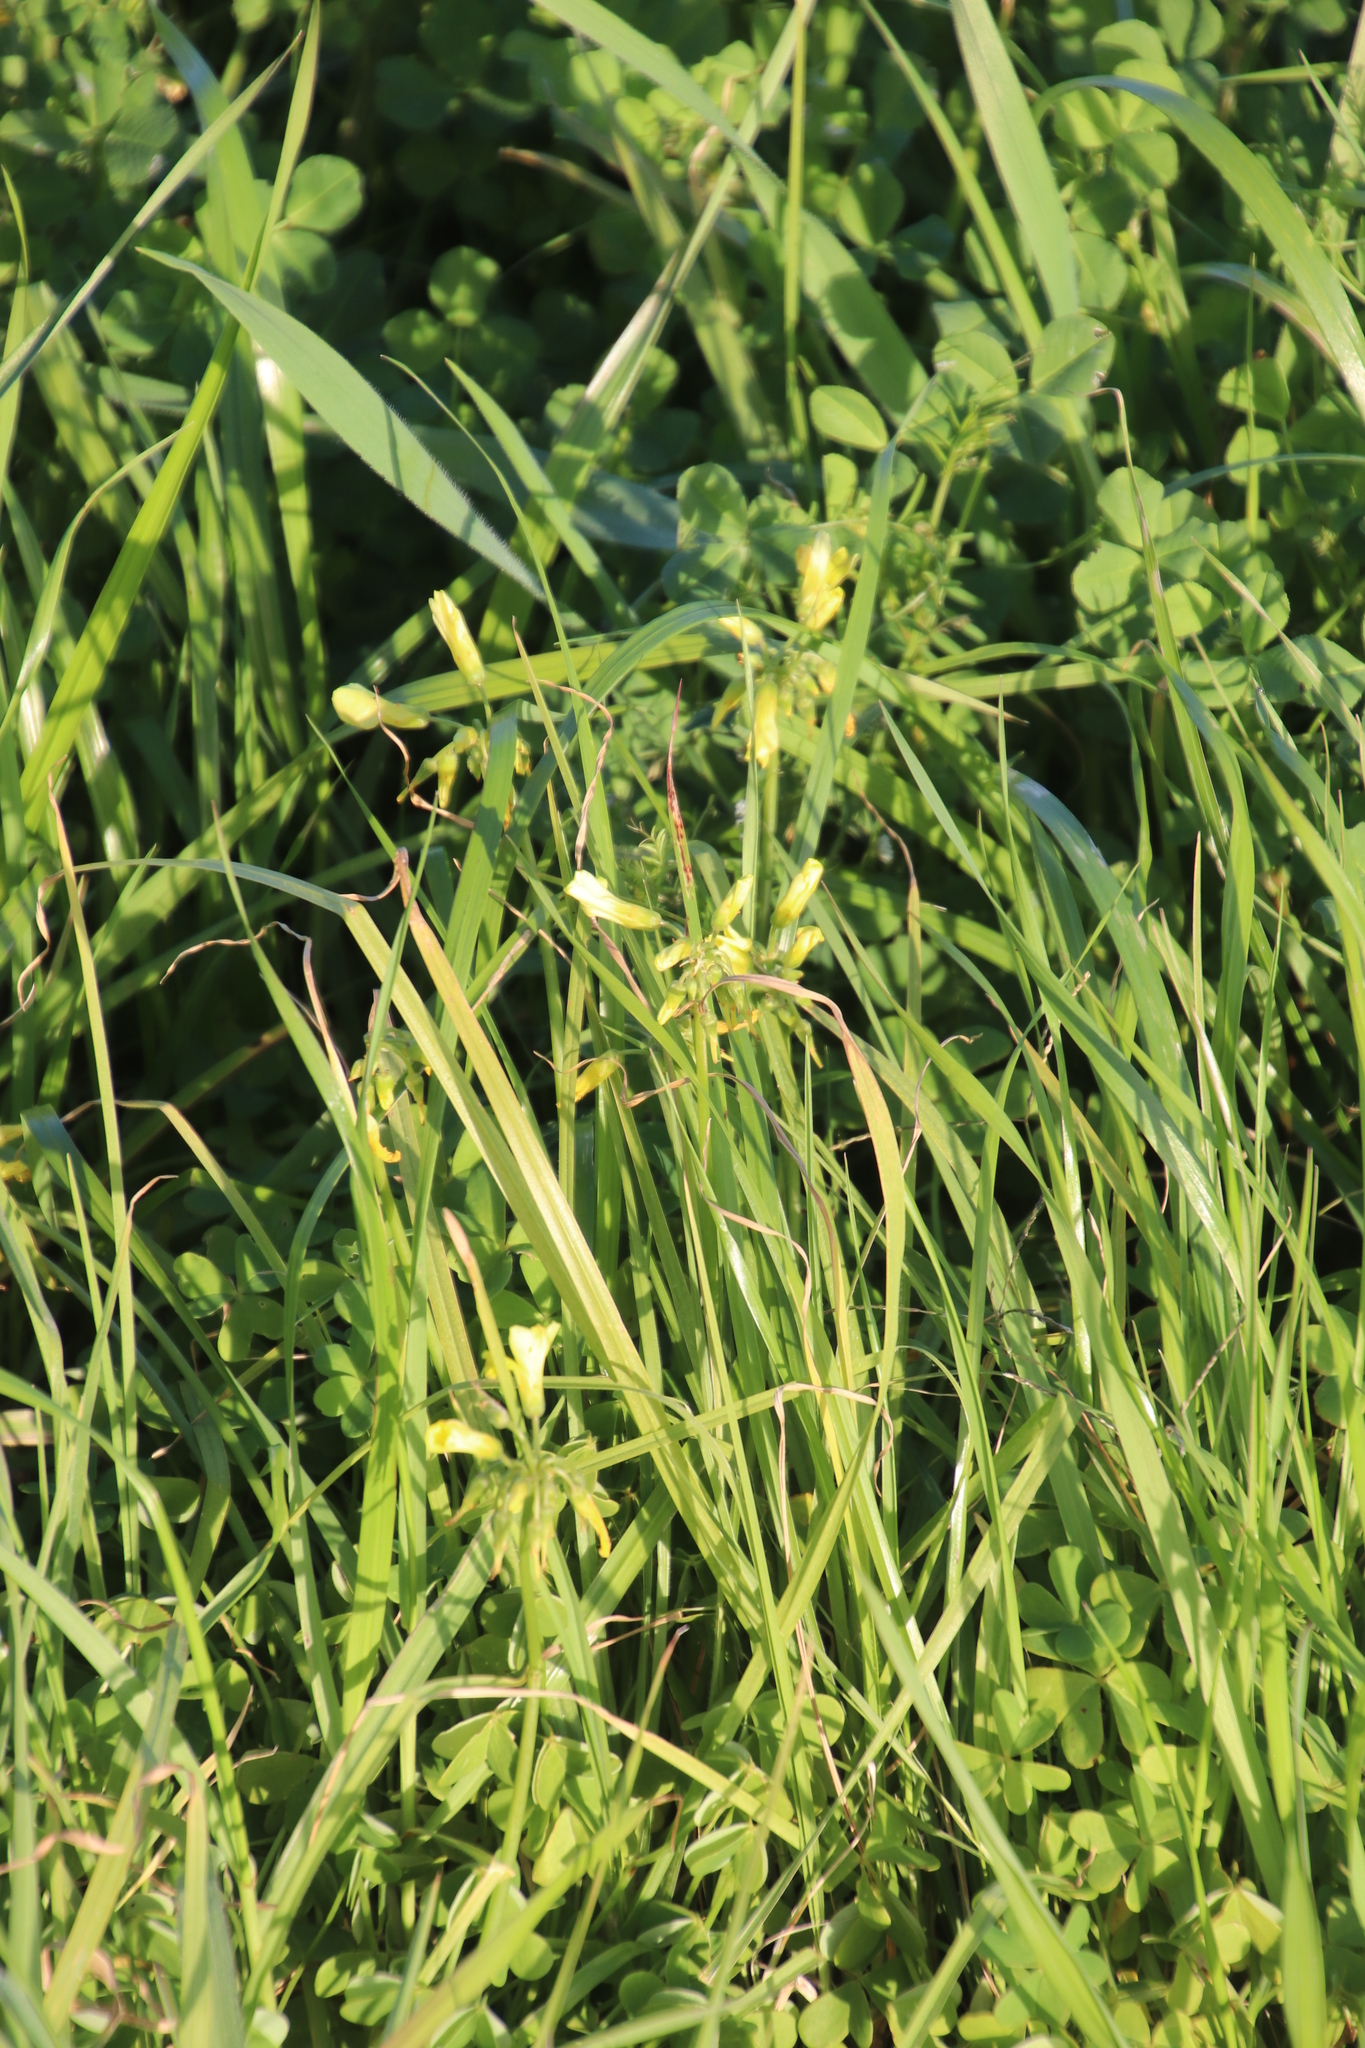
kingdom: Plantae
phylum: Tracheophyta
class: Magnoliopsida
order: Oxalidales
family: Oxalidaceae
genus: Oxalis
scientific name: Oxalis pes-caprae
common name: Bermuda-buttercup
